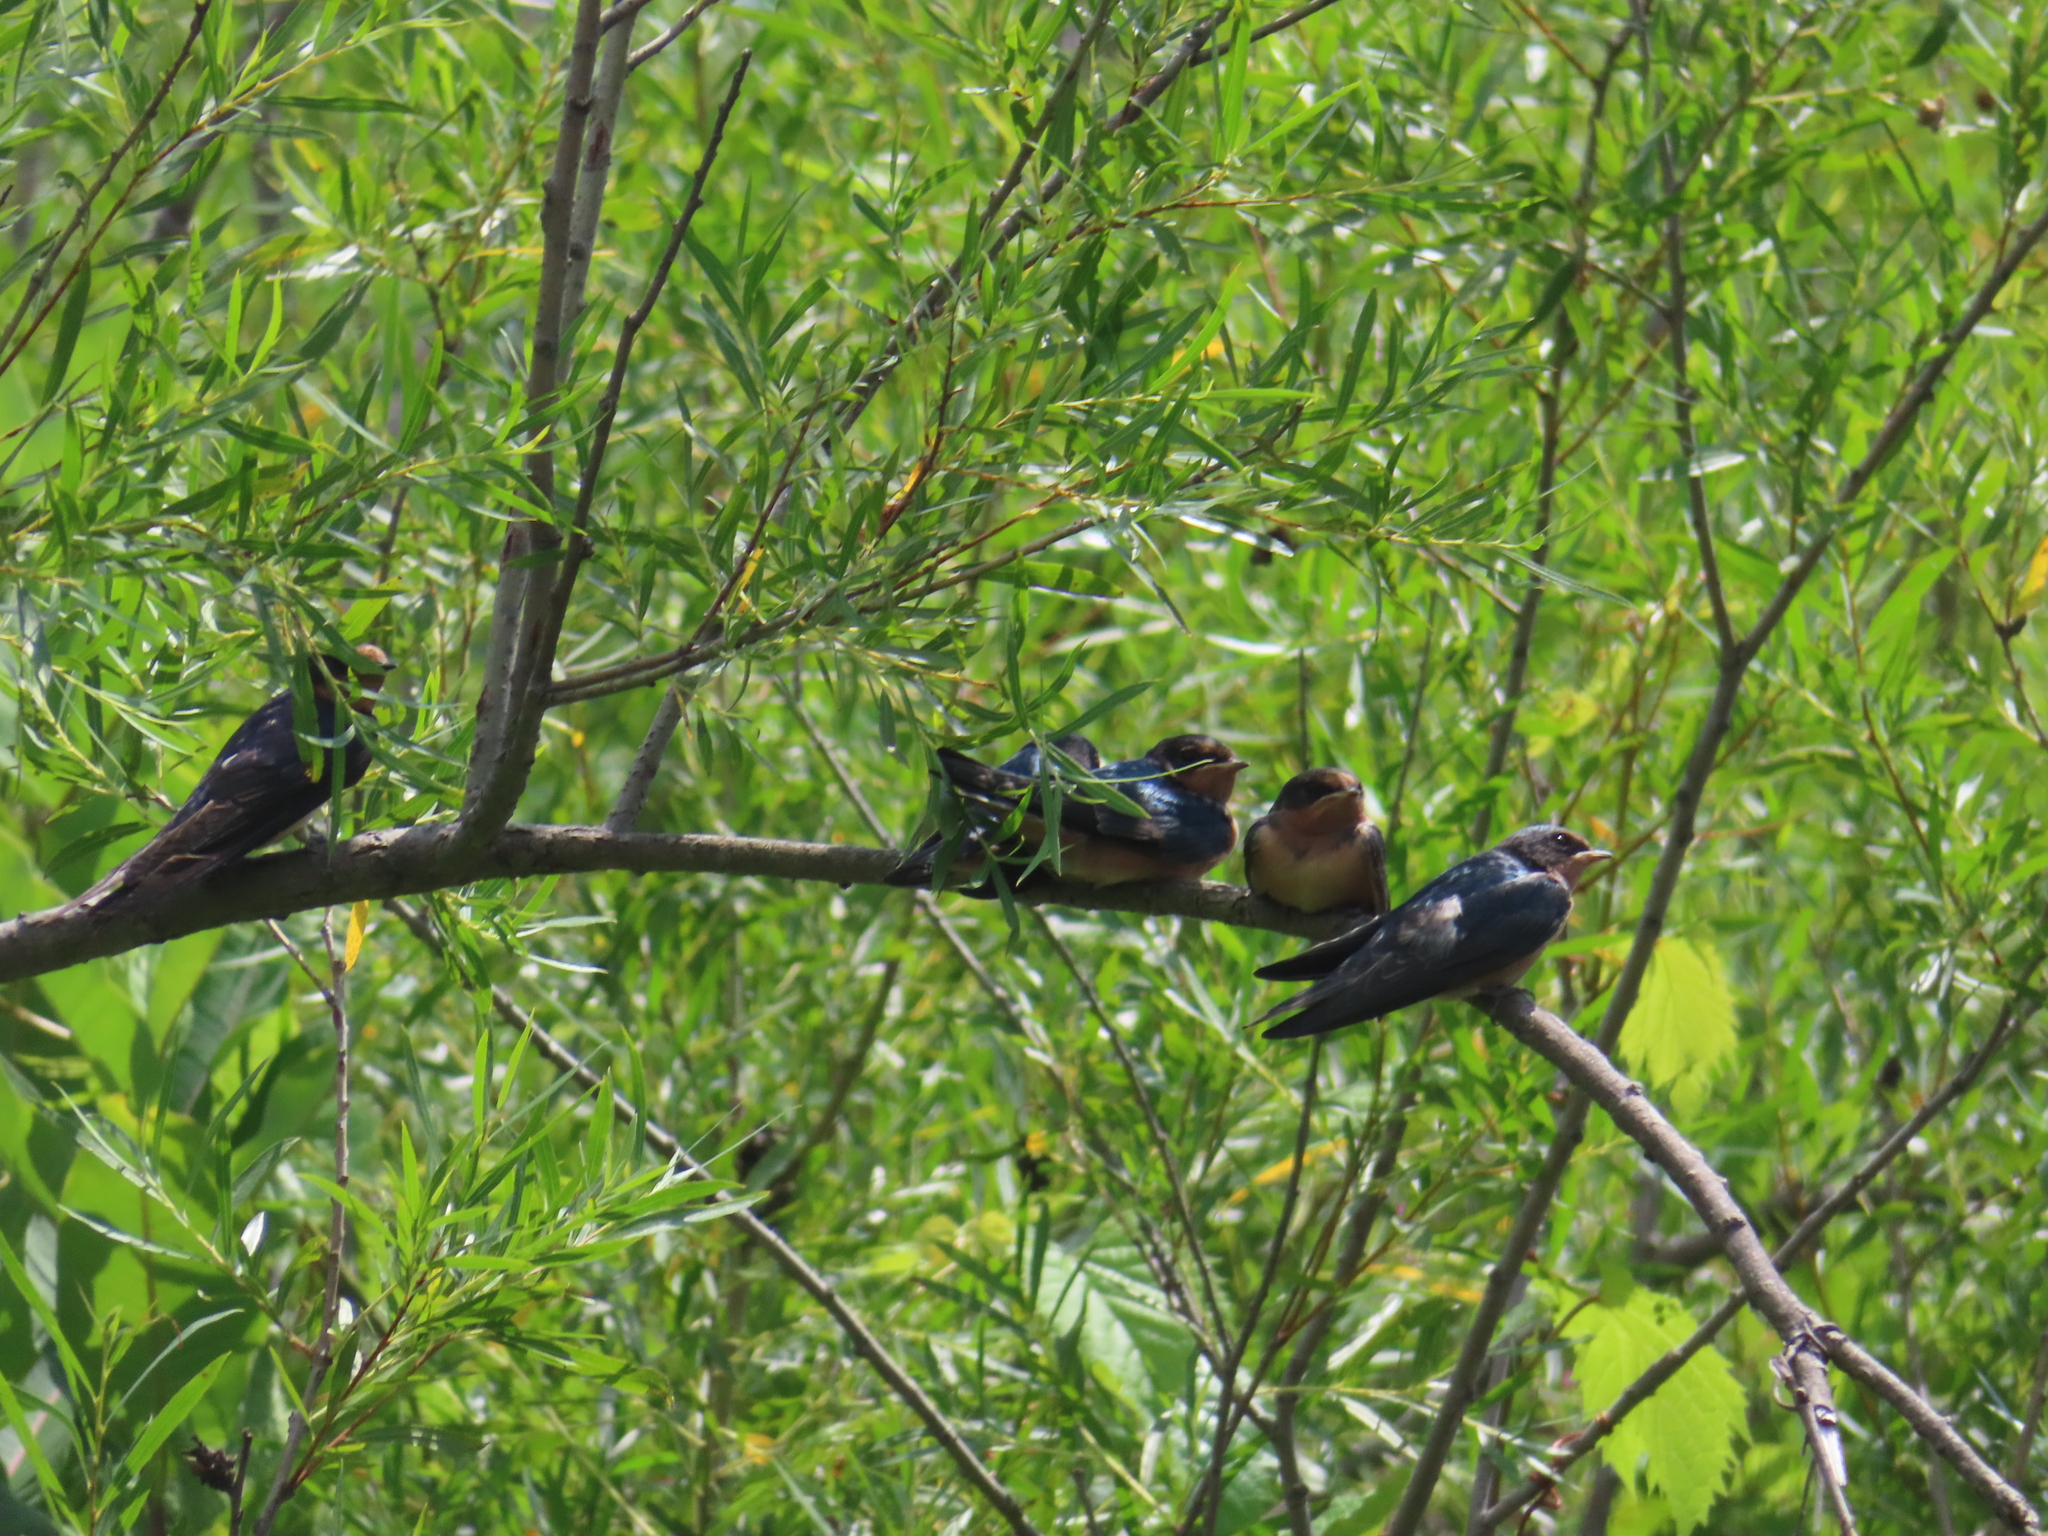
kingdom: Animalia
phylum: Chordata
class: Aves
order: Passeriformes
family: Hirundinidae
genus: Hirundo
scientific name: Hirundo rustica
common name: Barn swallow
